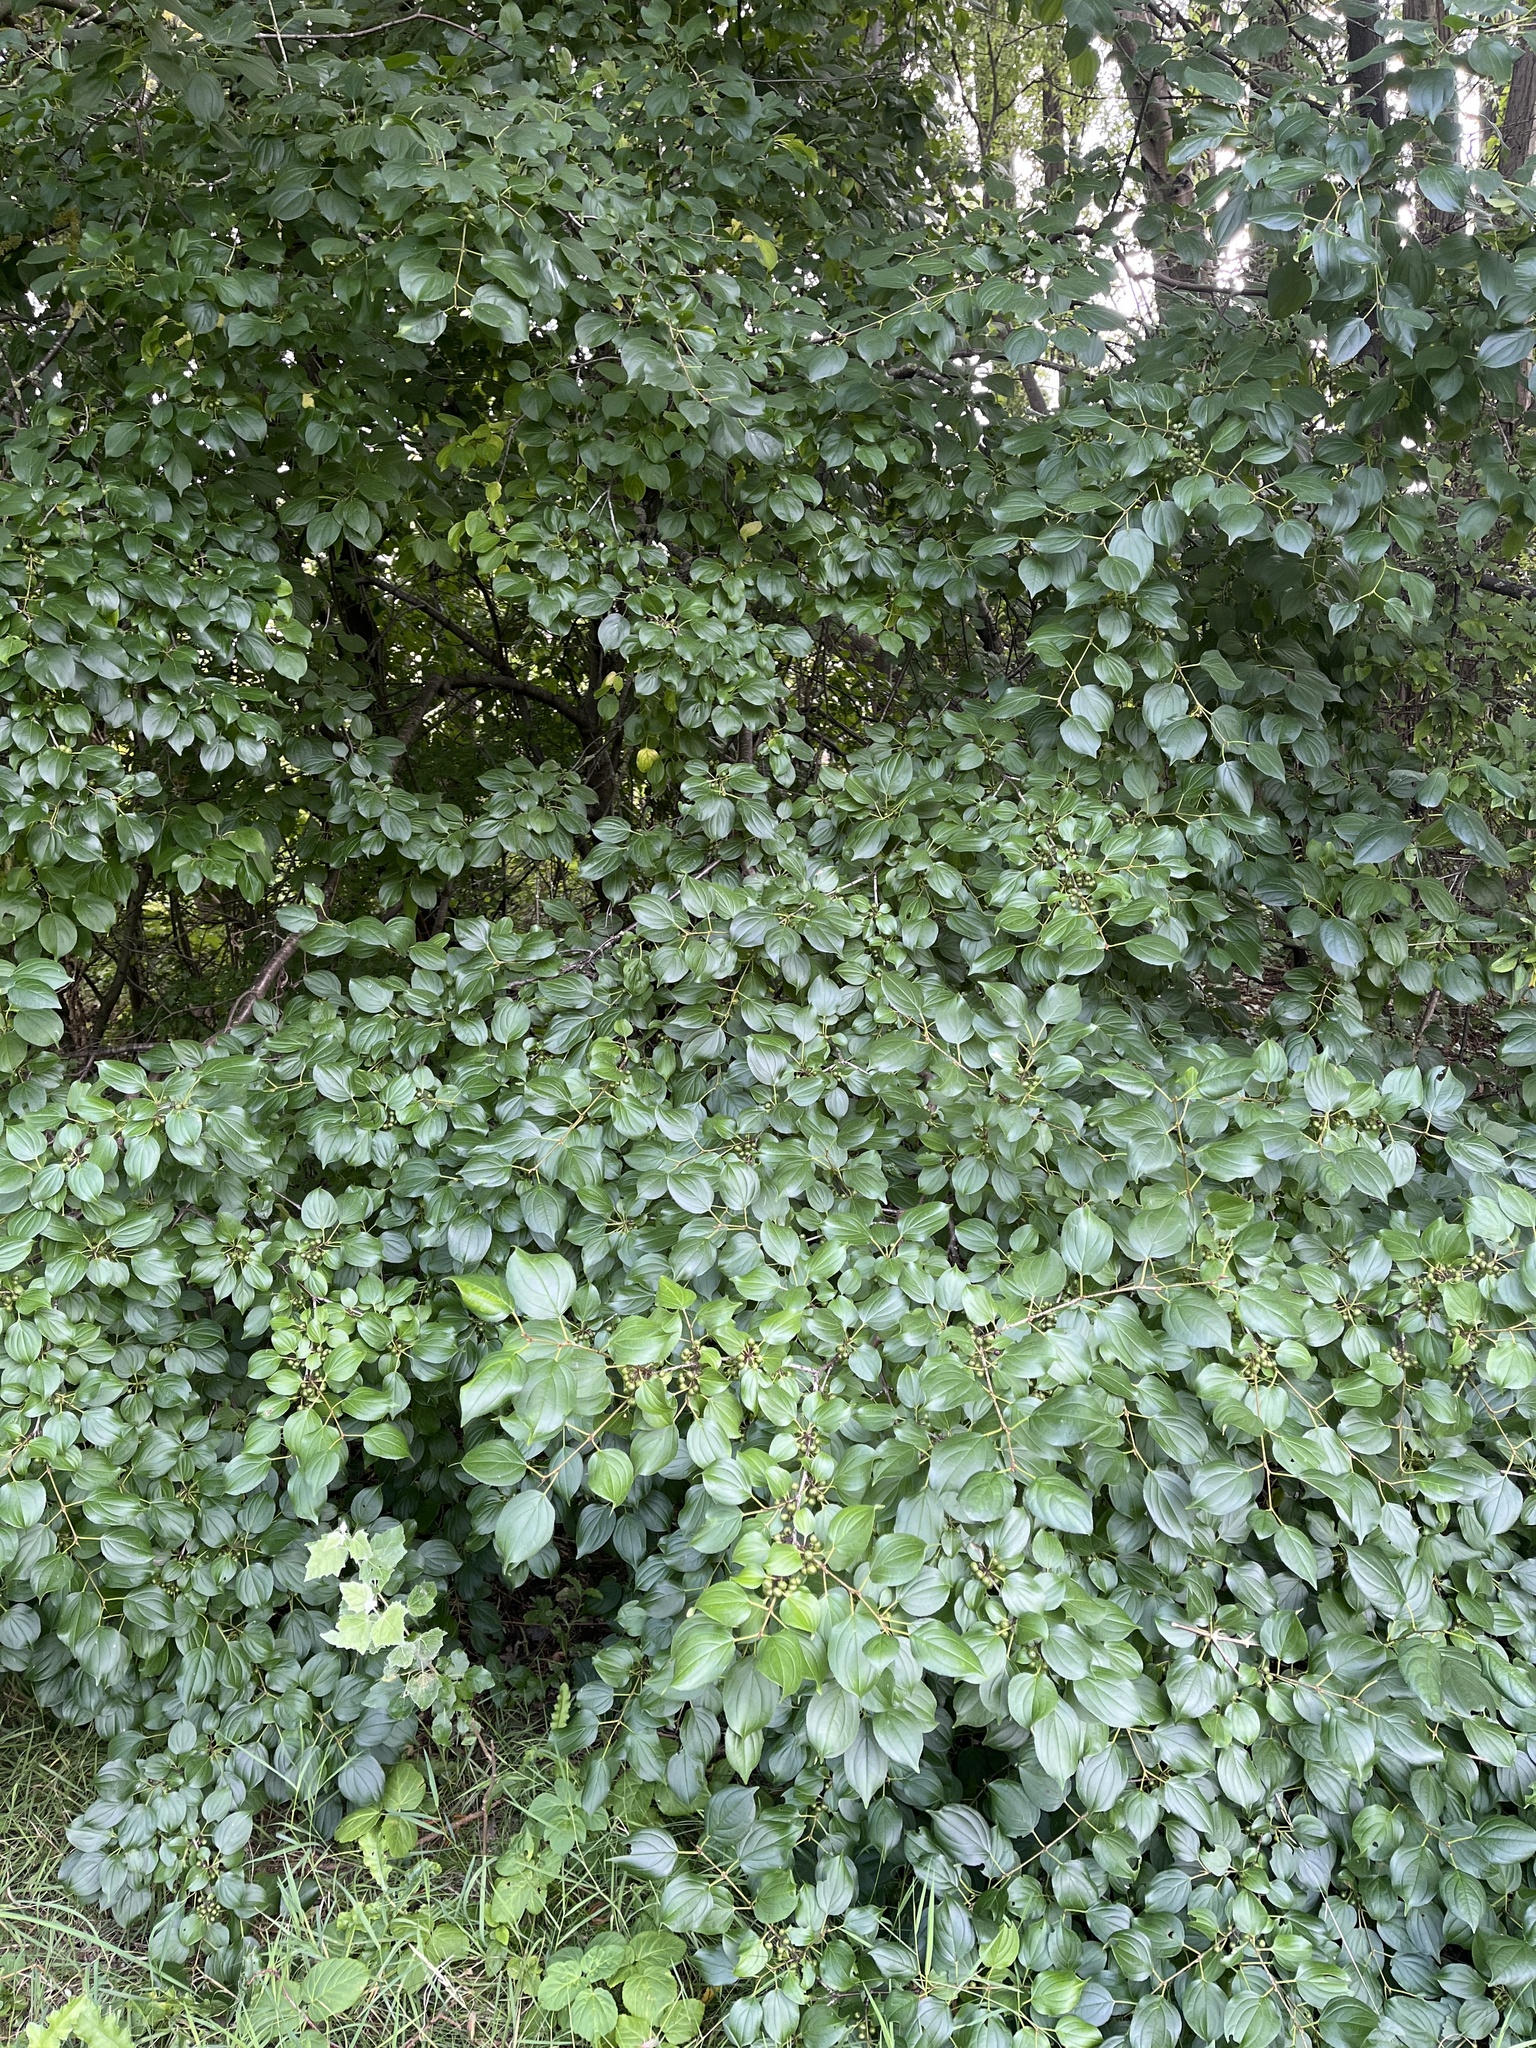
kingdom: Plantae
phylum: Tracheophyta
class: Magnoliopsida
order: Rosales
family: Rhamnaceae
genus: Rhamnus
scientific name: Rhamnus cathartica
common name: Common buckthorn
